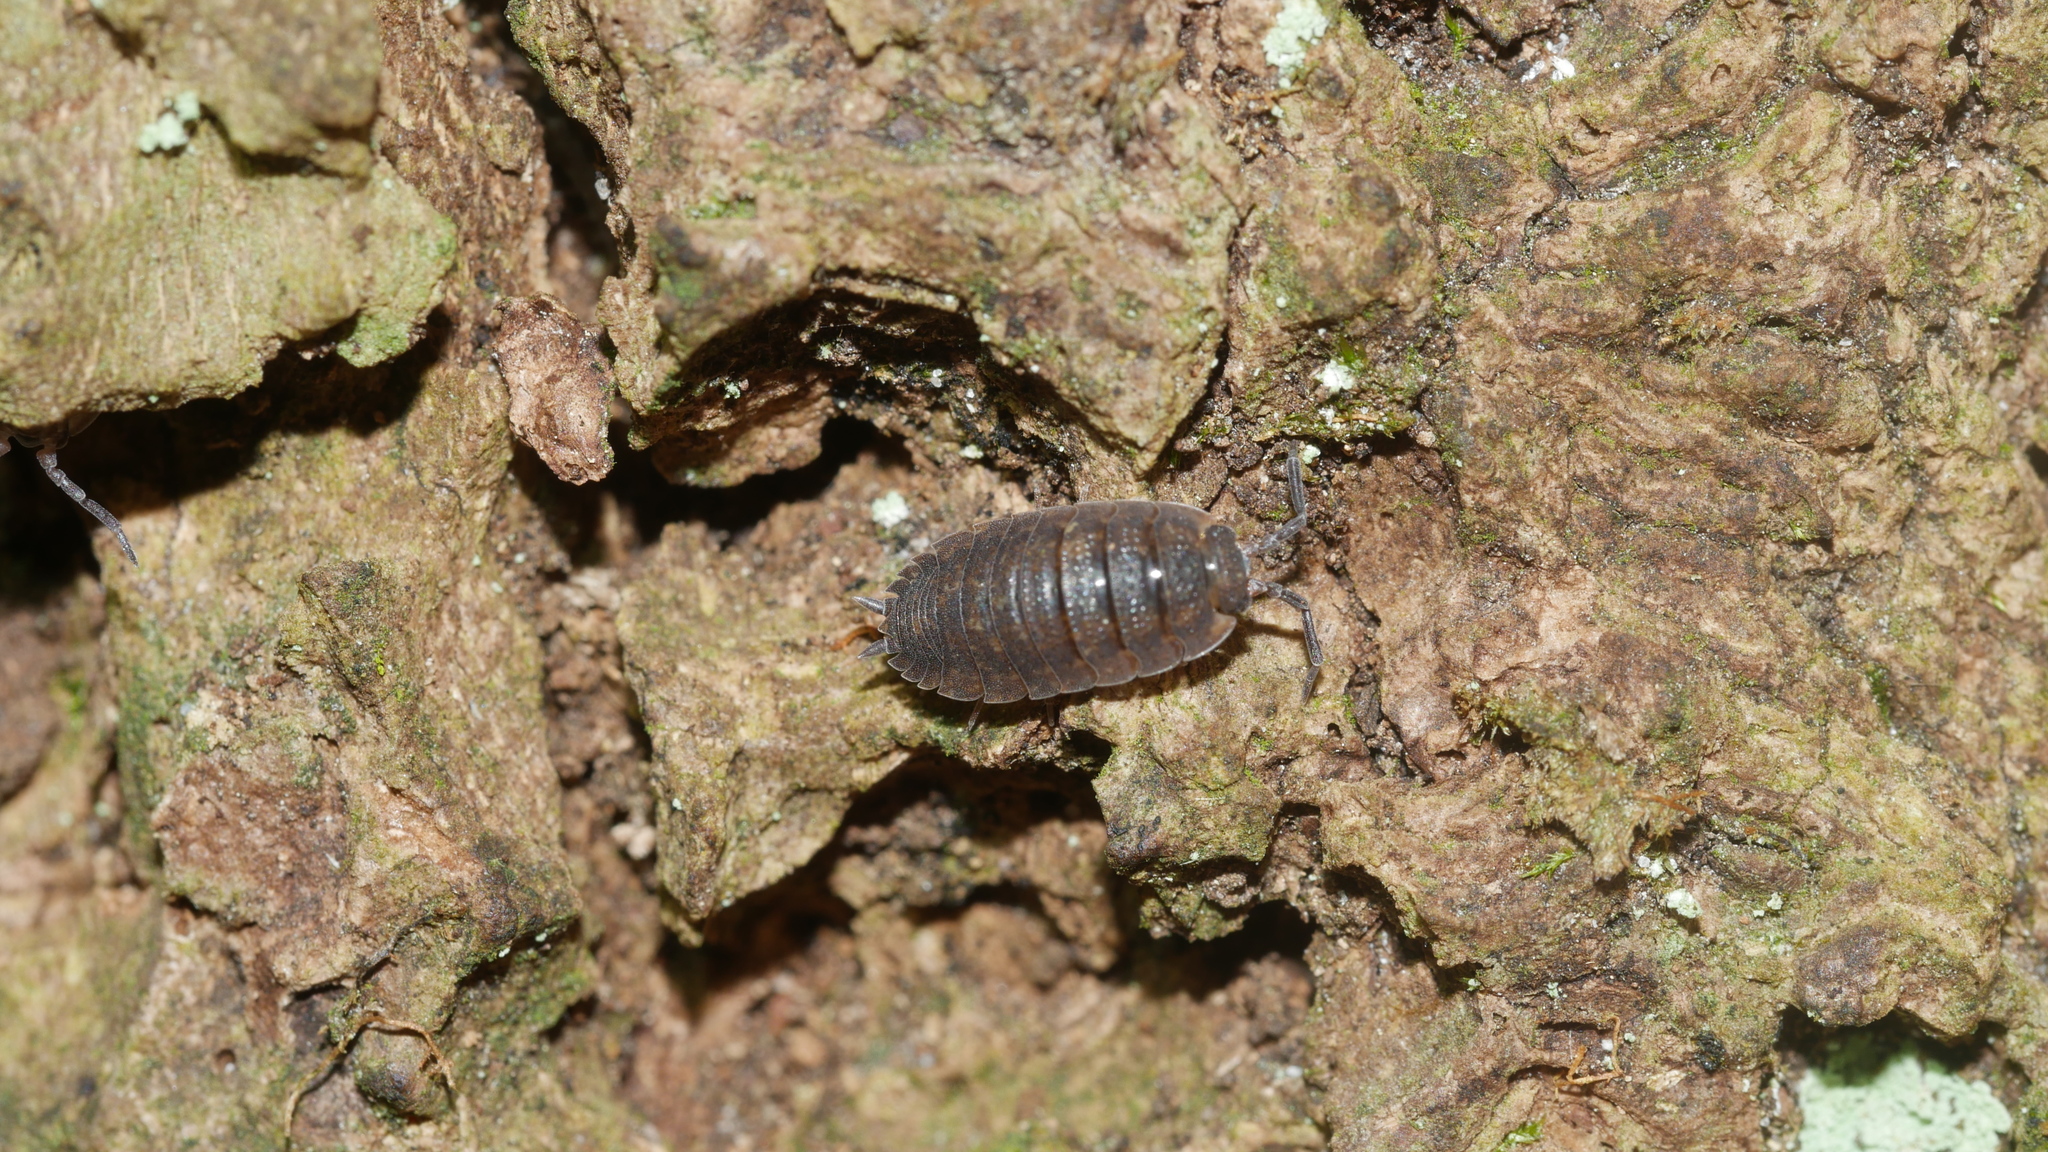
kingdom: Animalia
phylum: Arthropoda
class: Malacostraca
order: Isopoda
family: Porcellionidae
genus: Porcellio
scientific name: Porcellio scaber
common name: Common rough woodlouse
